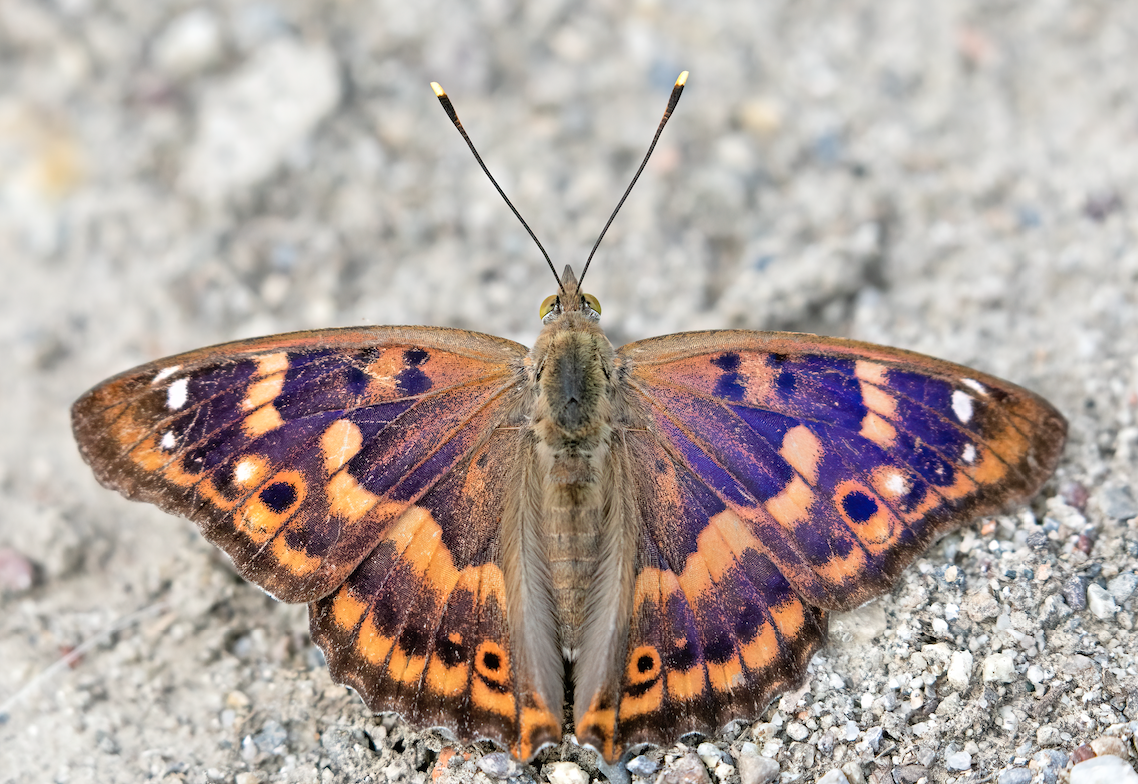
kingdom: Animalia
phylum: Arthropoda
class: Insecta
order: Lepidoptera
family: Nymphalidae
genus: Apatura
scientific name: Apatura ilia
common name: Lesser purple emperor
